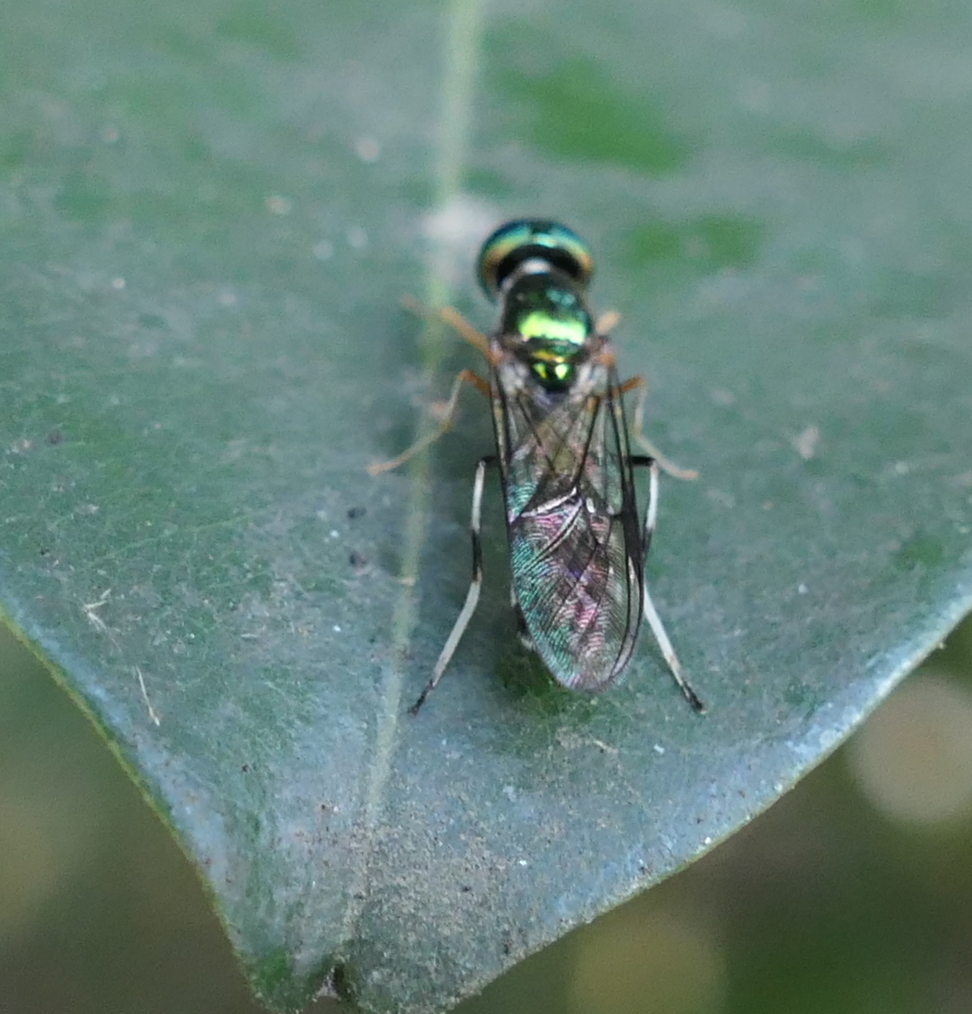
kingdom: Animalia
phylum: Arthropoda
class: Insecta
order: Diptera
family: Stratiomyidae
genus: Sargus
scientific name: Sargus fasciatus
